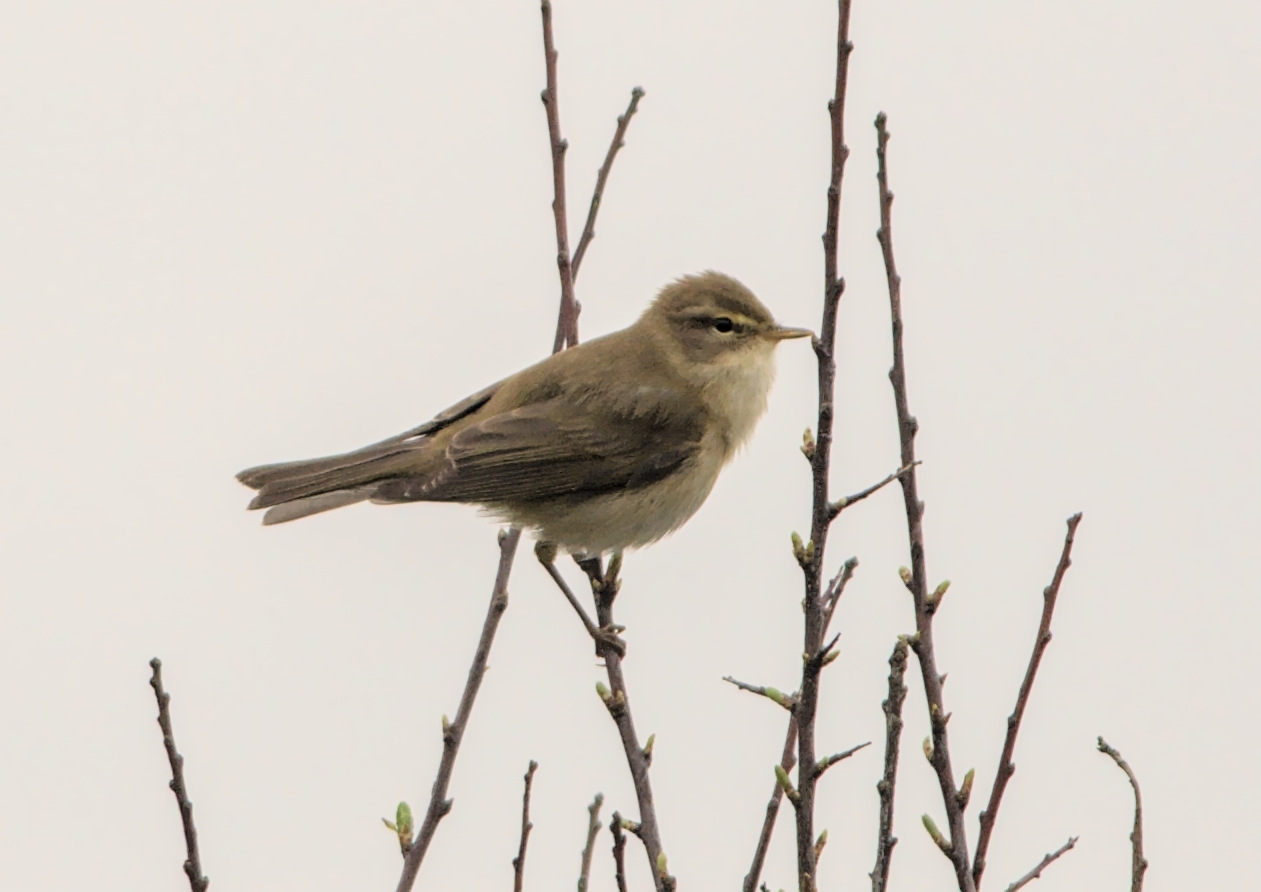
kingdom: Animalia
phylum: Chordata
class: Aves
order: Passeriformes
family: Phylloscopidae
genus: Phylloscopus
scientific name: Phylloscopus collybita
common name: Common chiffchaff
